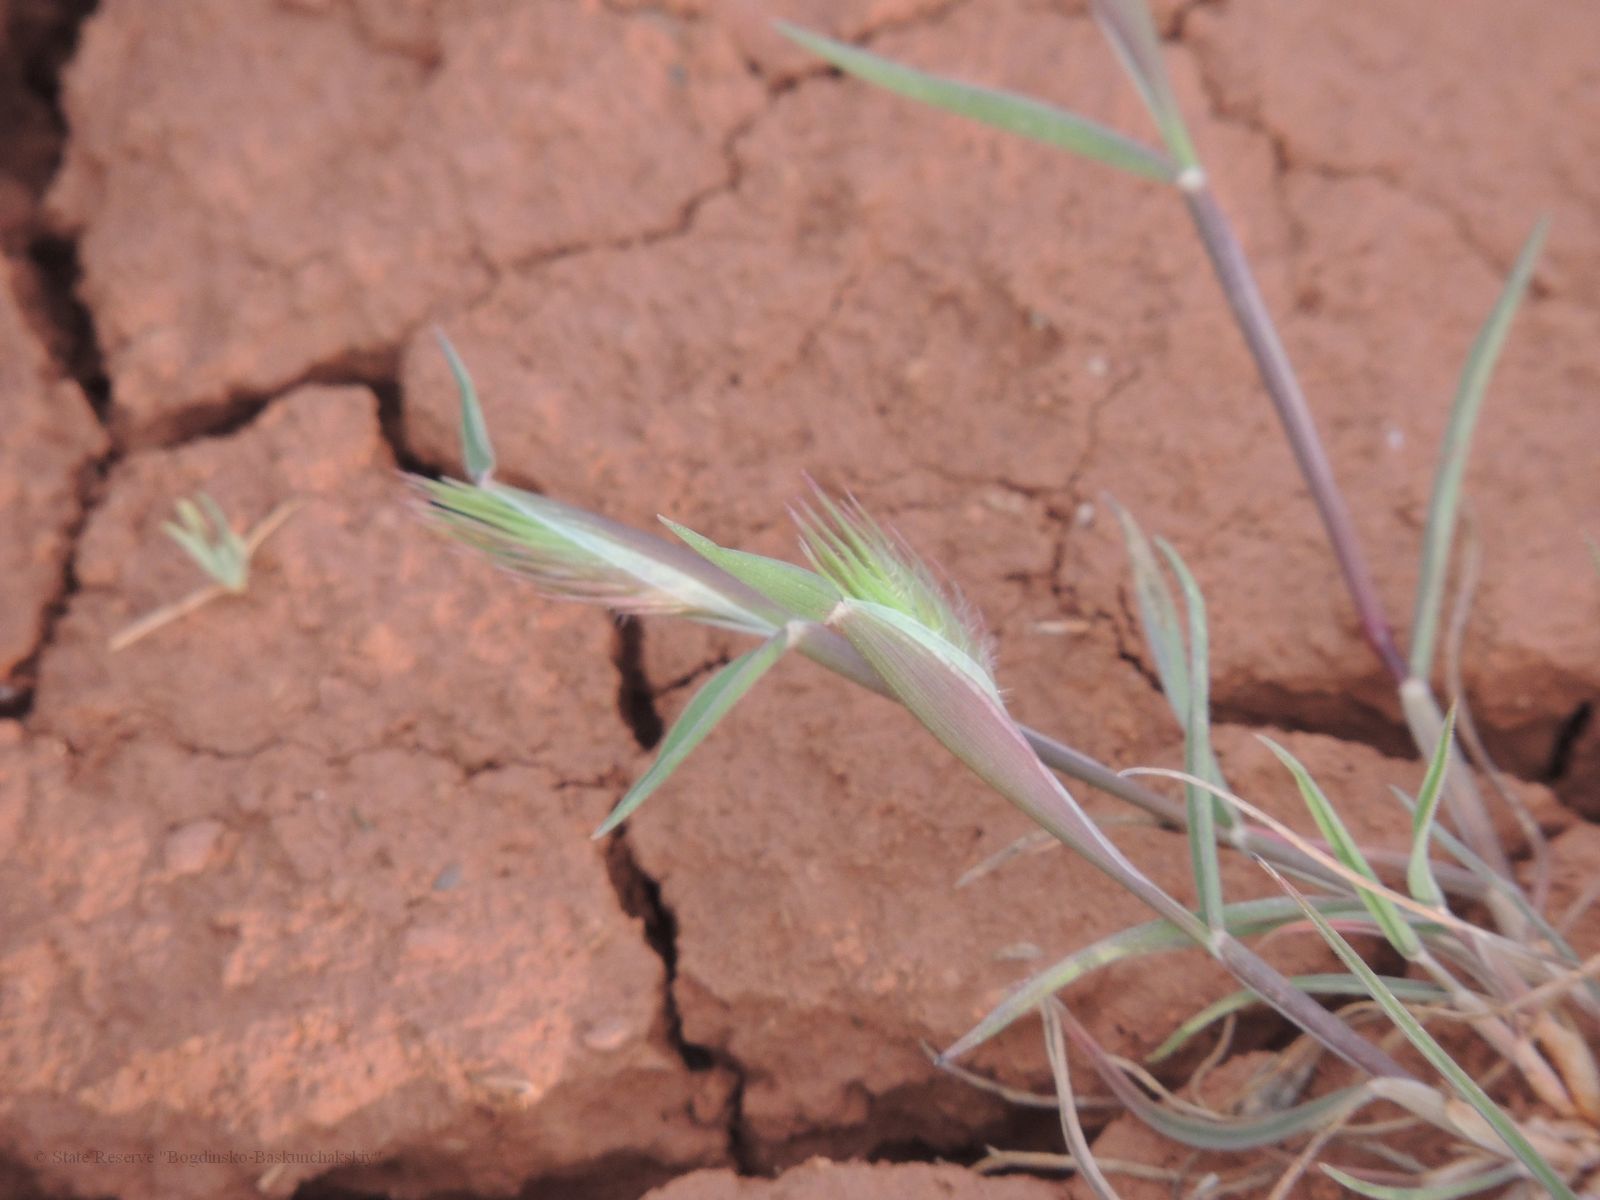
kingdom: Plantae
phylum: Tracheophyta
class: Liliopsida
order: Poales
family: Poaceae
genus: Eremopyrum
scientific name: Eremopyrum orientale
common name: Oriental false wheatgrass
